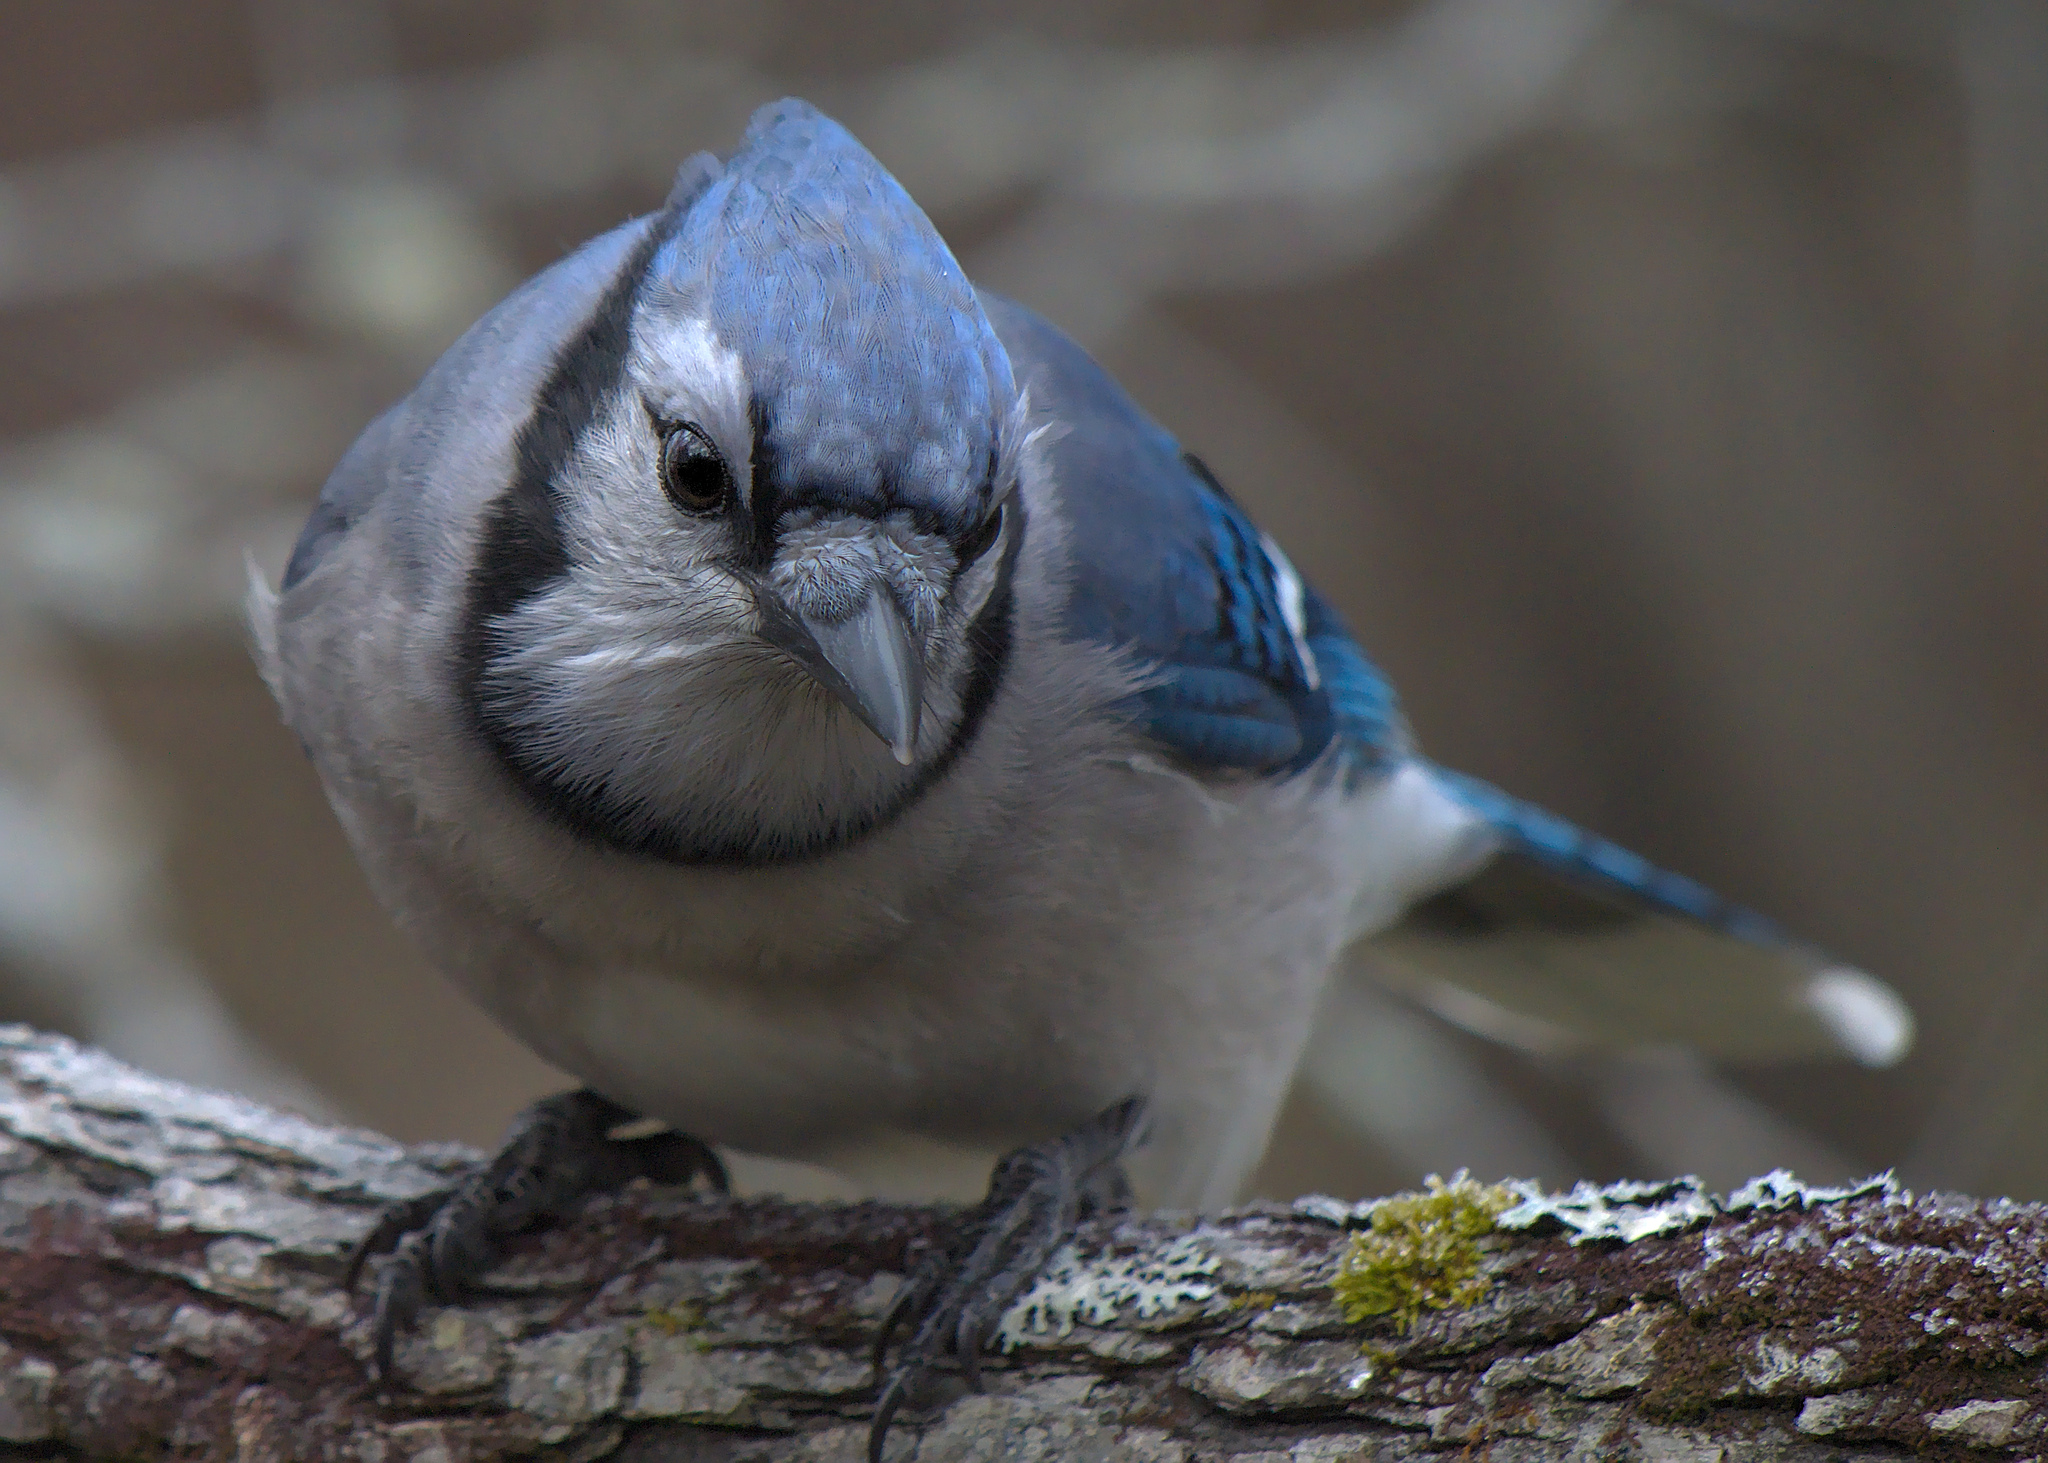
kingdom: Animalia
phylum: Chordata
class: Aves
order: Passeriformes
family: Corvidae
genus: Cyanocitta
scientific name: Cyanocitta cristata
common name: Blue jay
